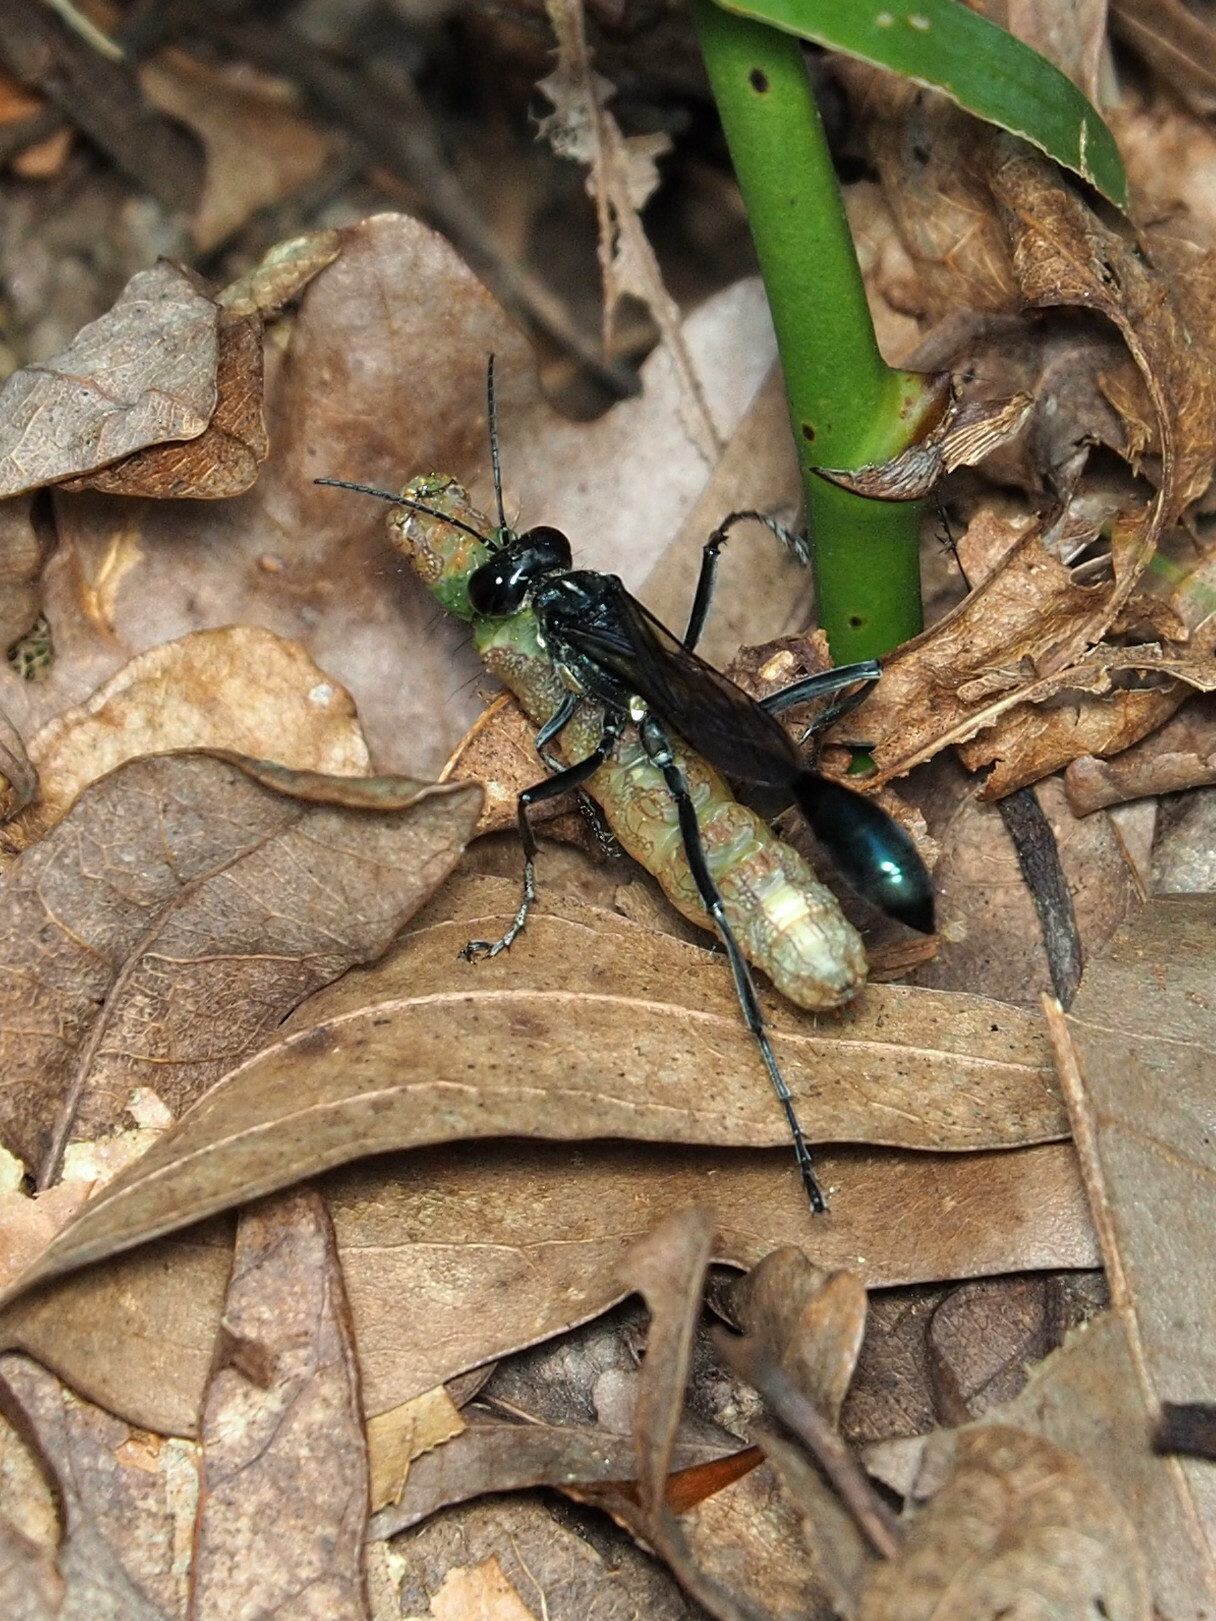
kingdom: Animalia
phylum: Arthropoda
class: Insecta
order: Hymenoptera
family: Sphecidae
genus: Eremnophila
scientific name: Eremnophila aureonotata
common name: Gold-marked thread-waisted wasp
